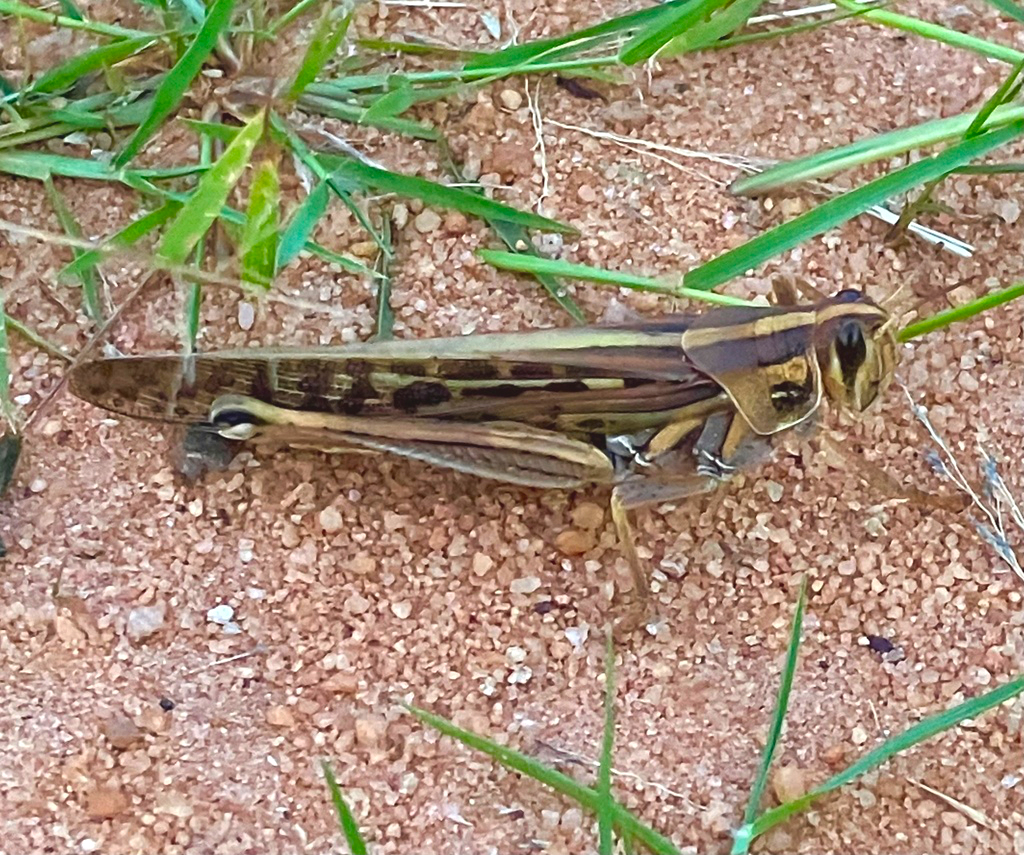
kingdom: Animalia
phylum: Arthropoda
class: Insecta
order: Orthoptera
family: Acrididae
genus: Schistocerca
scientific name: Schistocerca americana
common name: American bird locust
